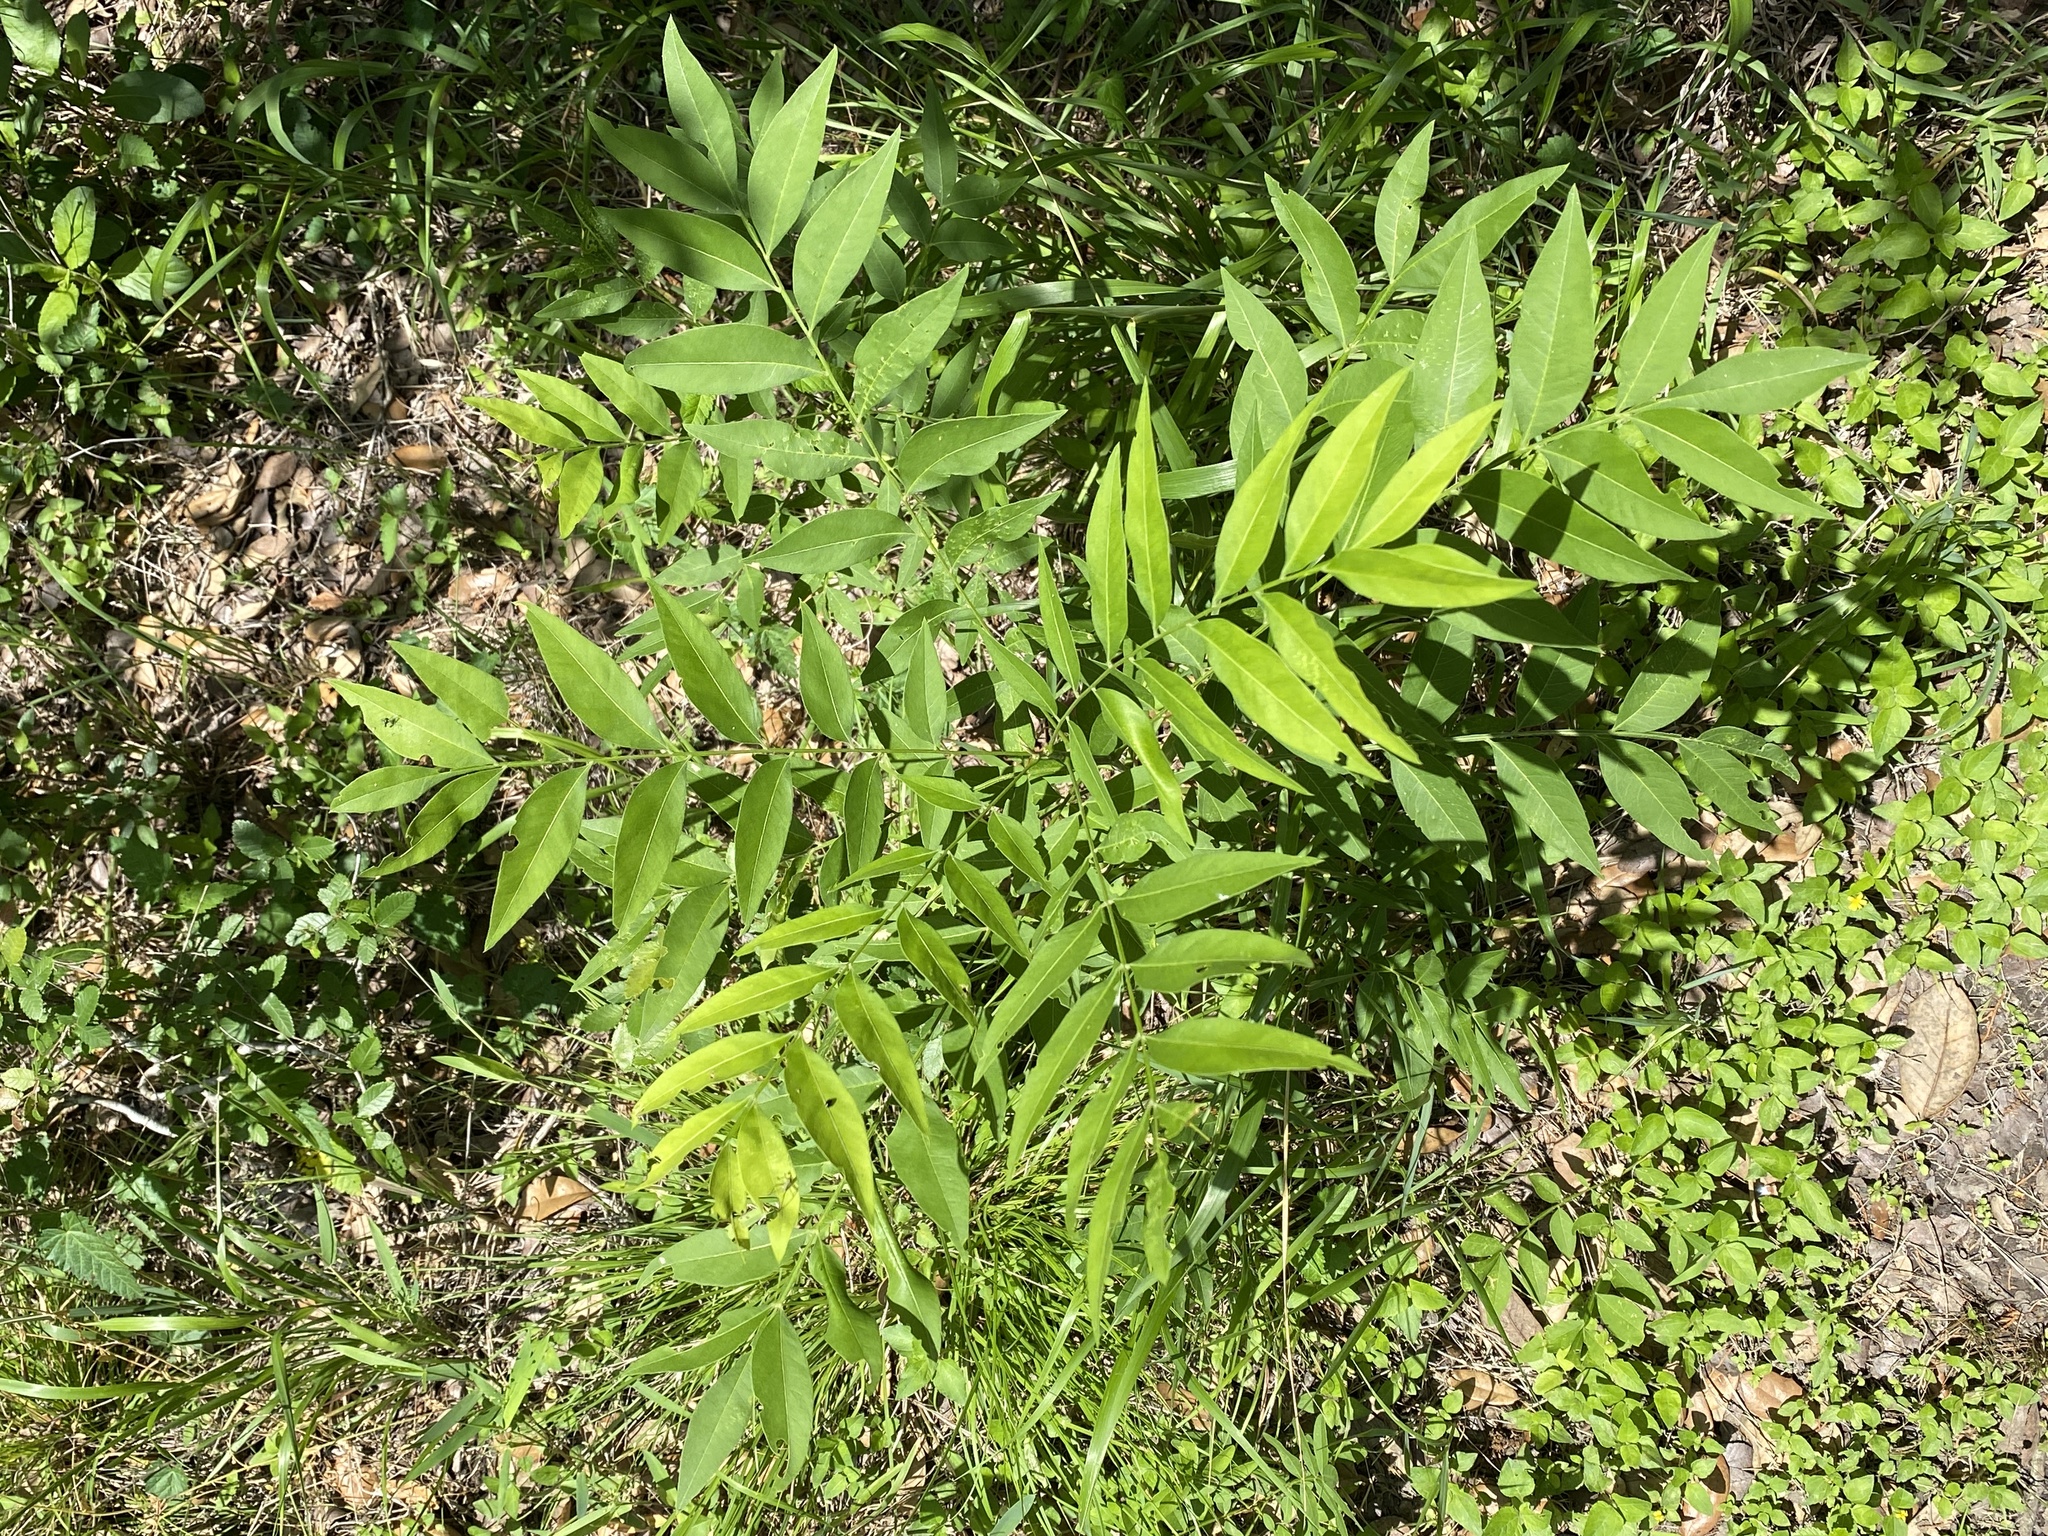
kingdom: Plantae
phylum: Tracheophyta
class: Magnoliopsida
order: Sapindales
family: Sapindaceae
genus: Sapindus
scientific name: Sapindus drummondii
